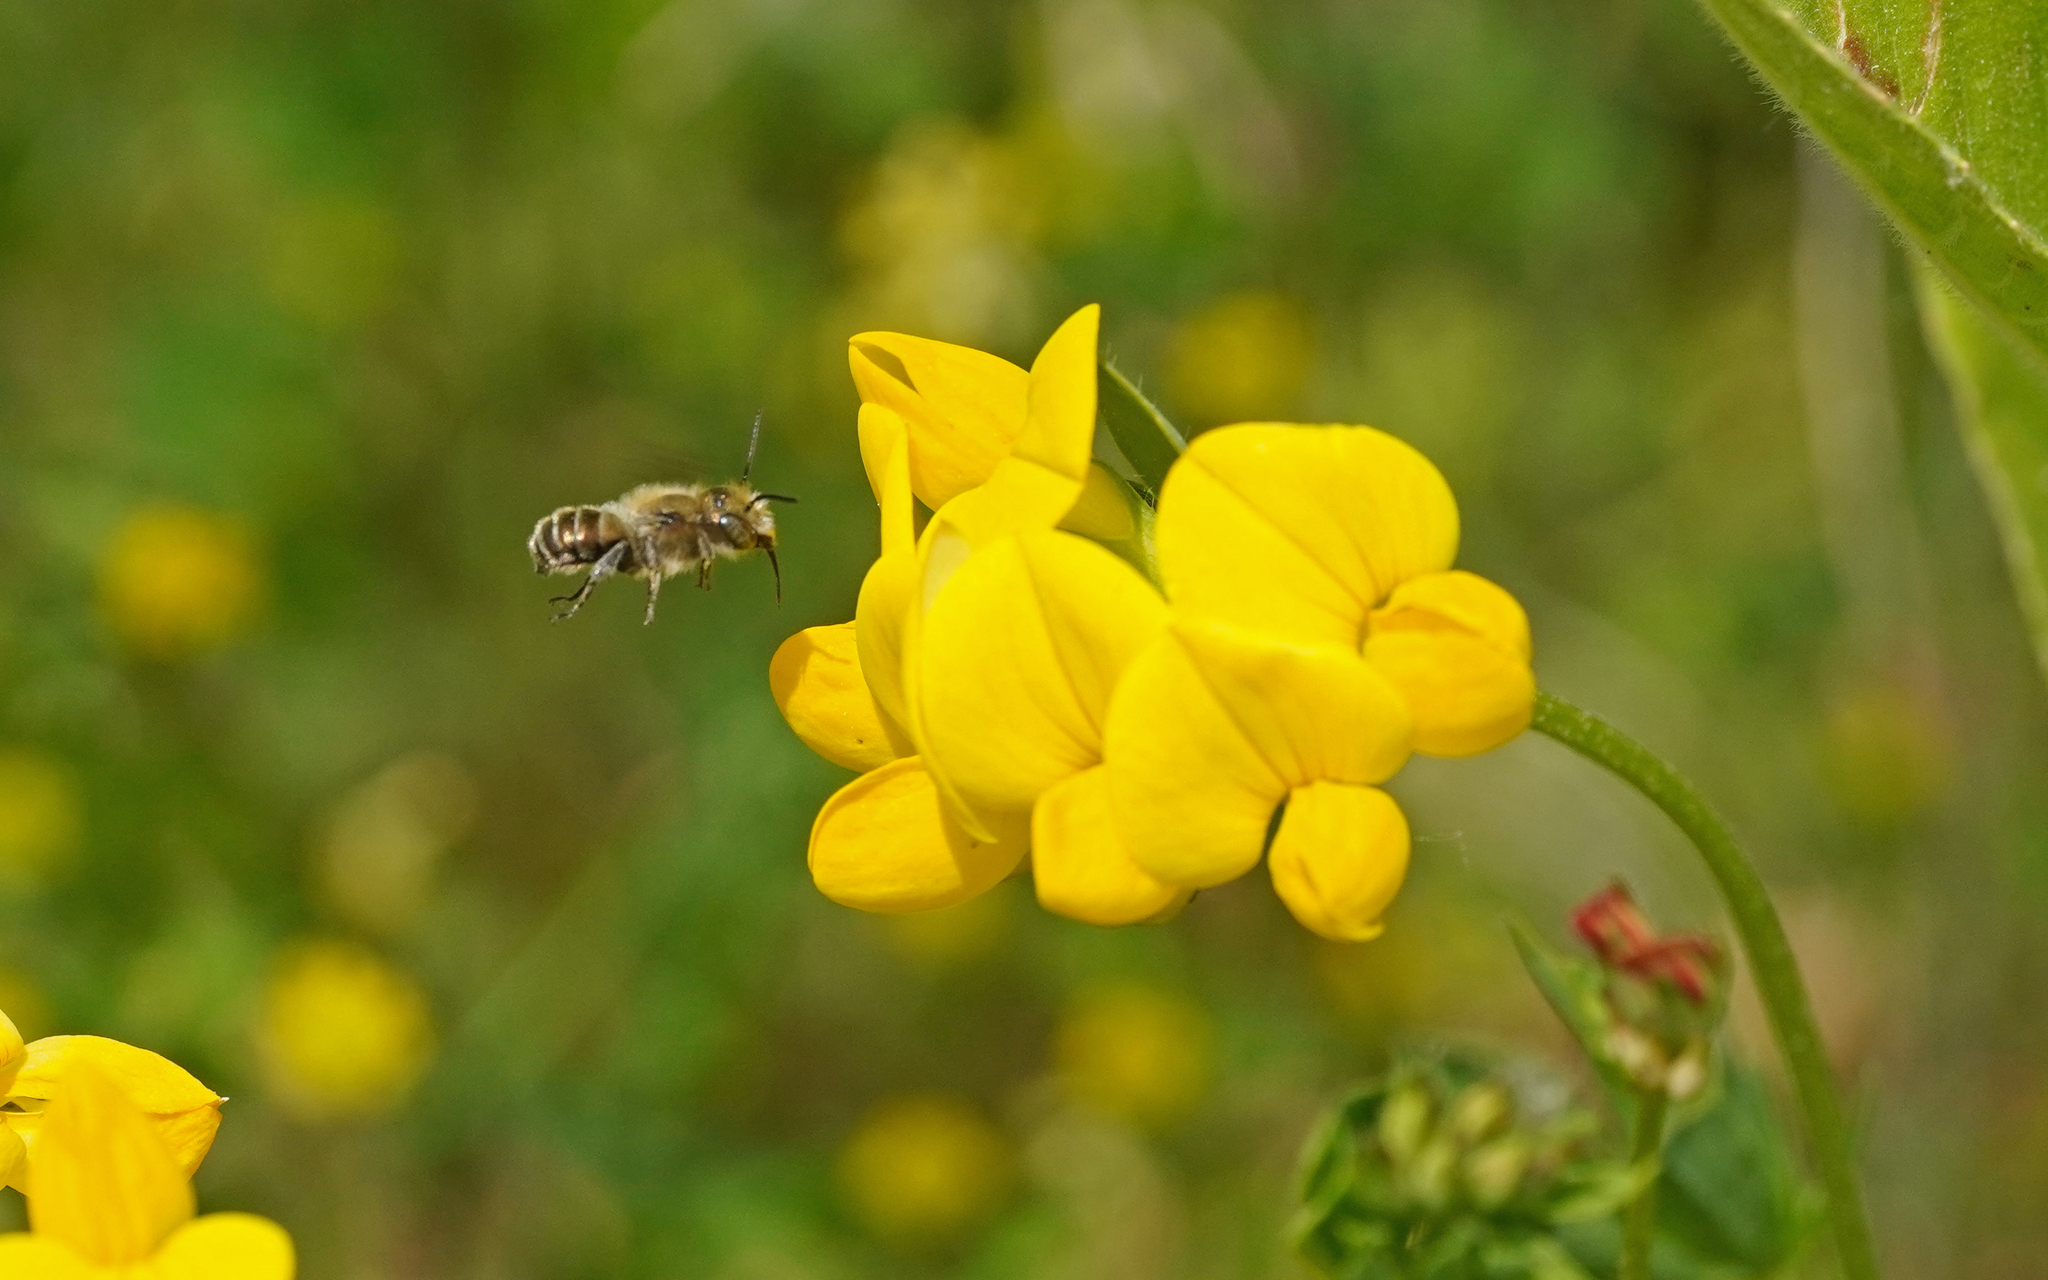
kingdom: Animalia
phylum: Arthropoda
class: Insecta
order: Hymenoptera
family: Megachilidae
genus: Osmia
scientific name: Osmia caerulescens
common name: Blue mason bee
